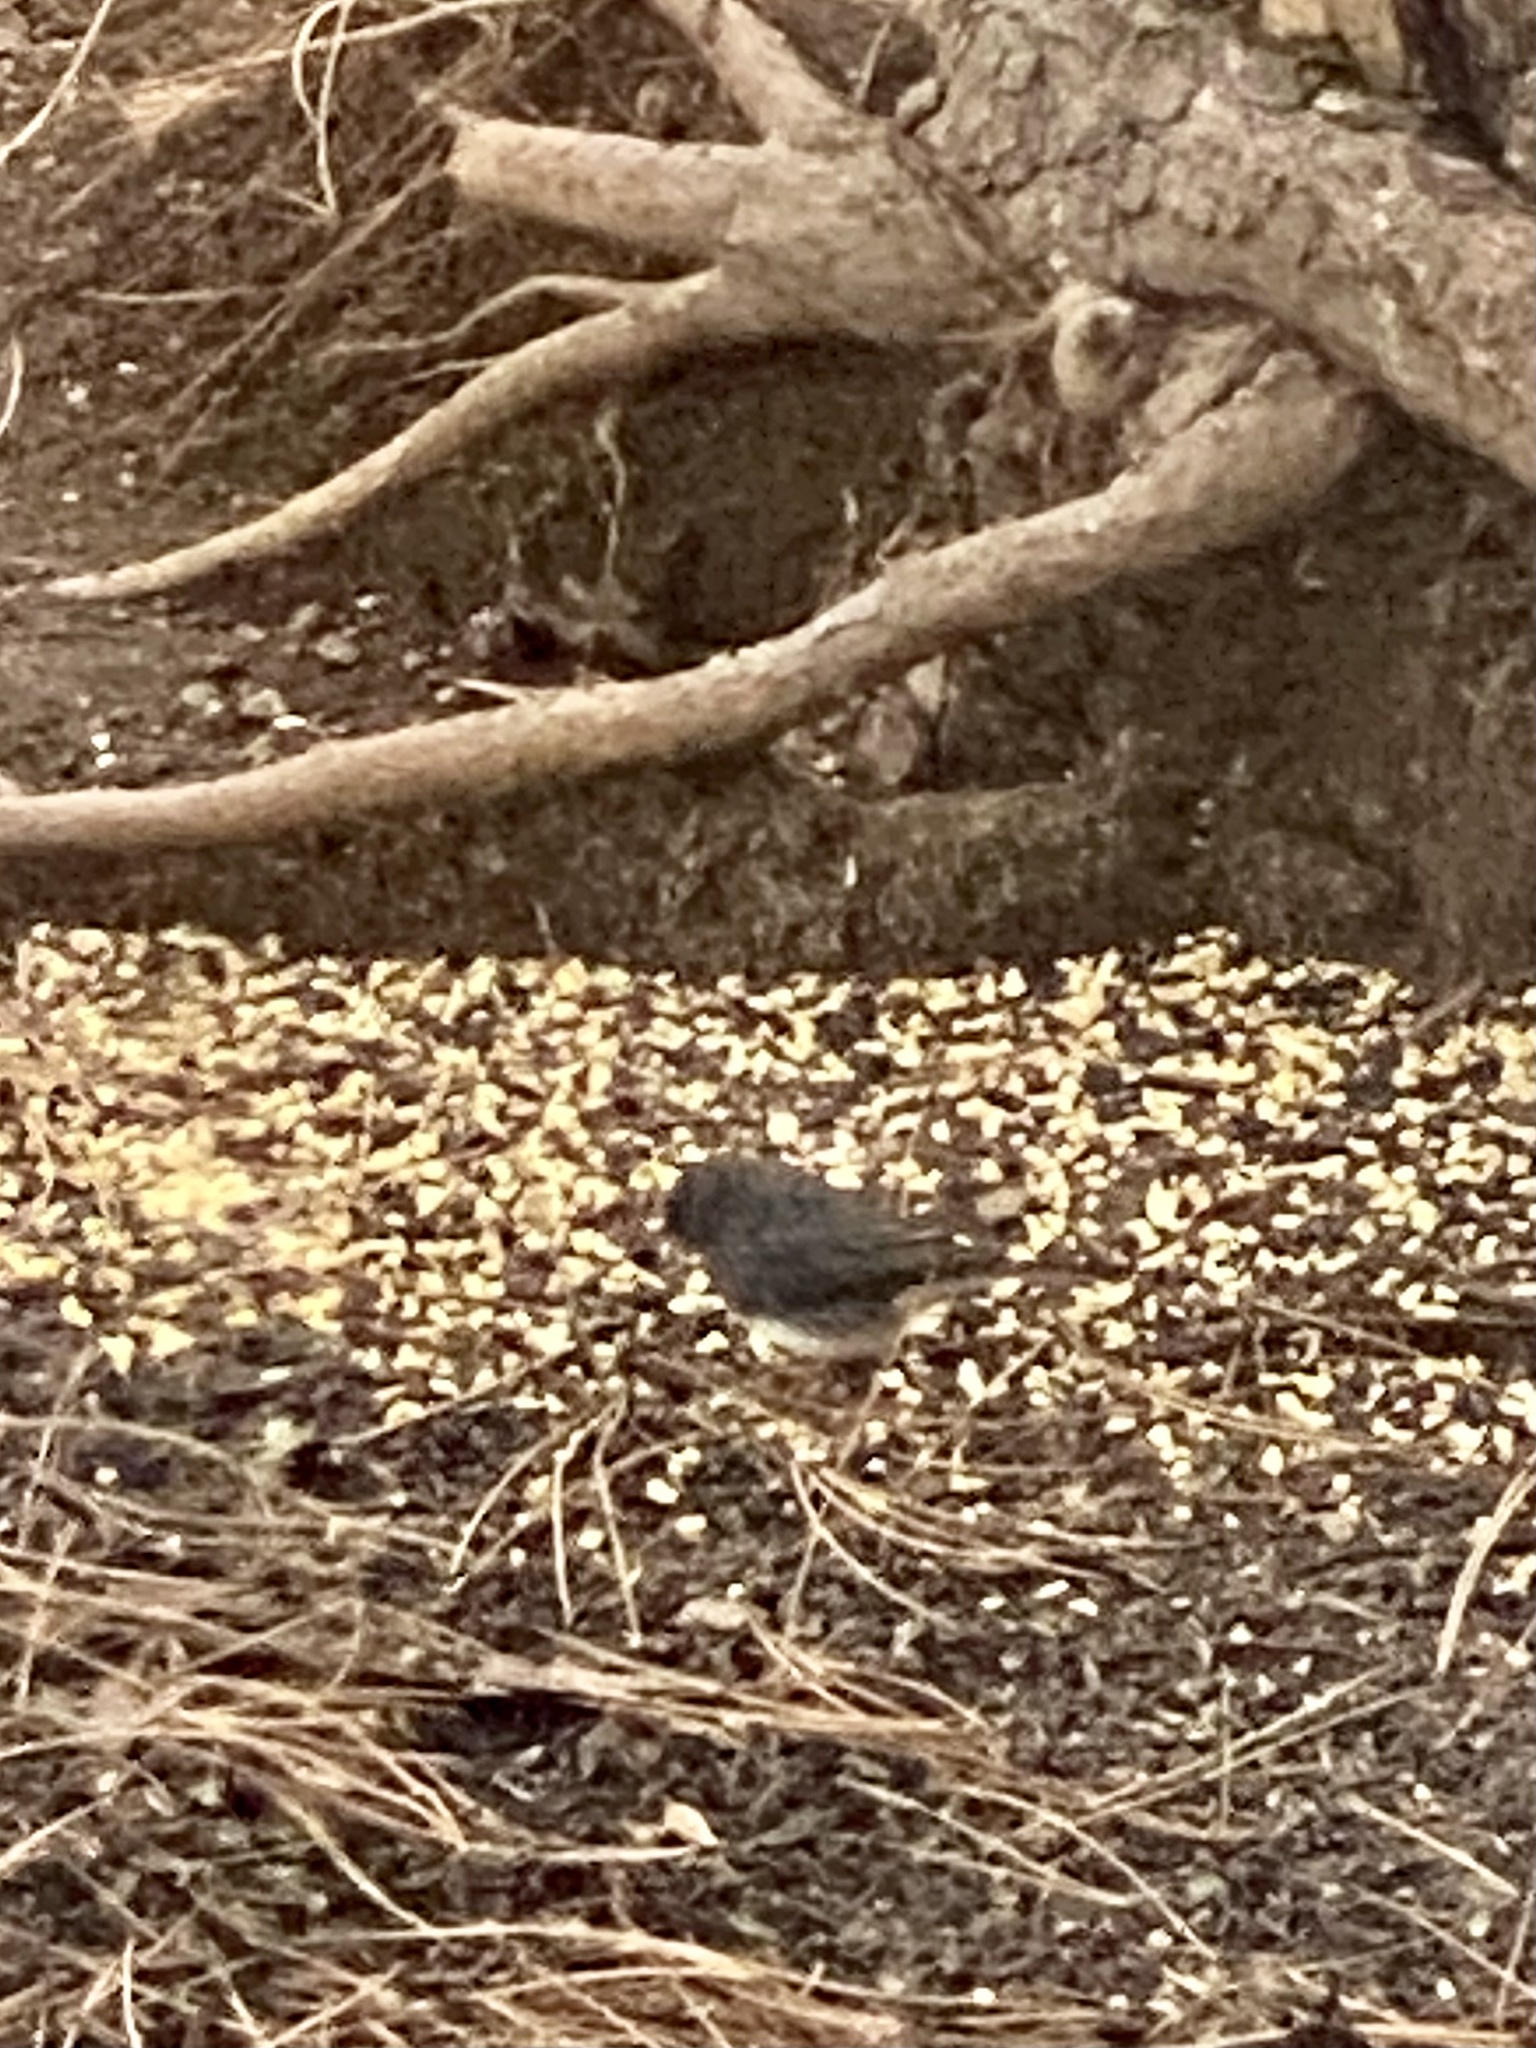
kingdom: Animalia
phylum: Chordata
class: Aves
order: Passeriformes
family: Passerellidae
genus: Junco
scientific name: Junco hyemalis
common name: Dark-eyed junco
